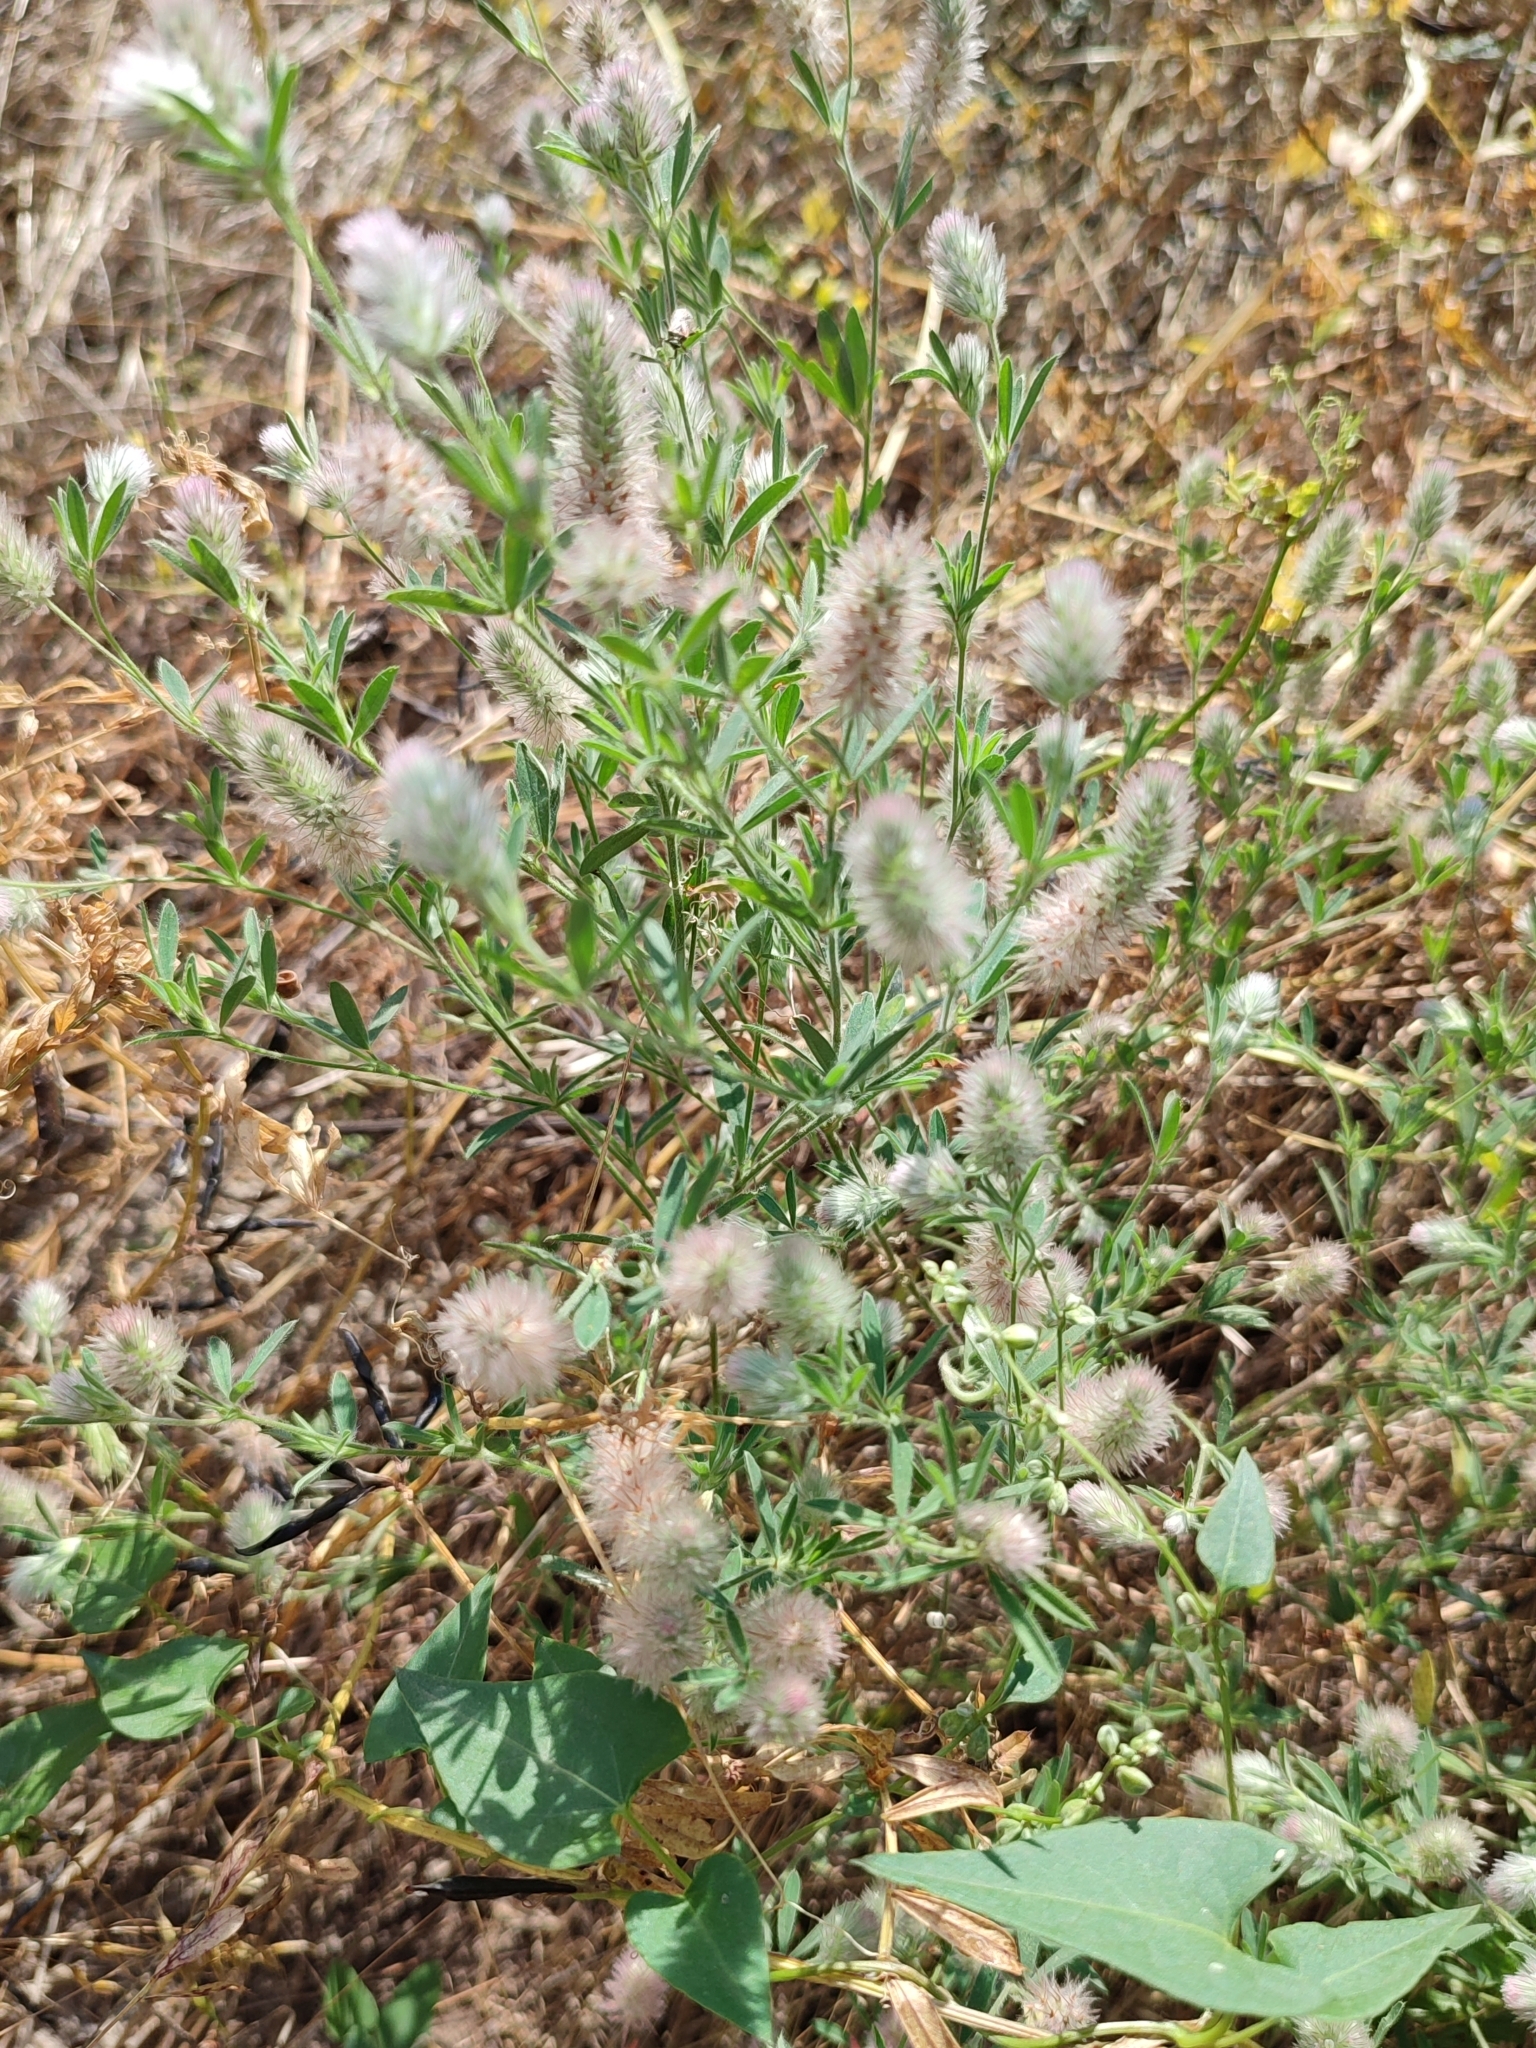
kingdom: Plantae
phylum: Tracheophyta
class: Magnoliopsida
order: Fabales
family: Fabaceae
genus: Trifolium
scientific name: Trifolium arvense
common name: Hare's-foot clover
